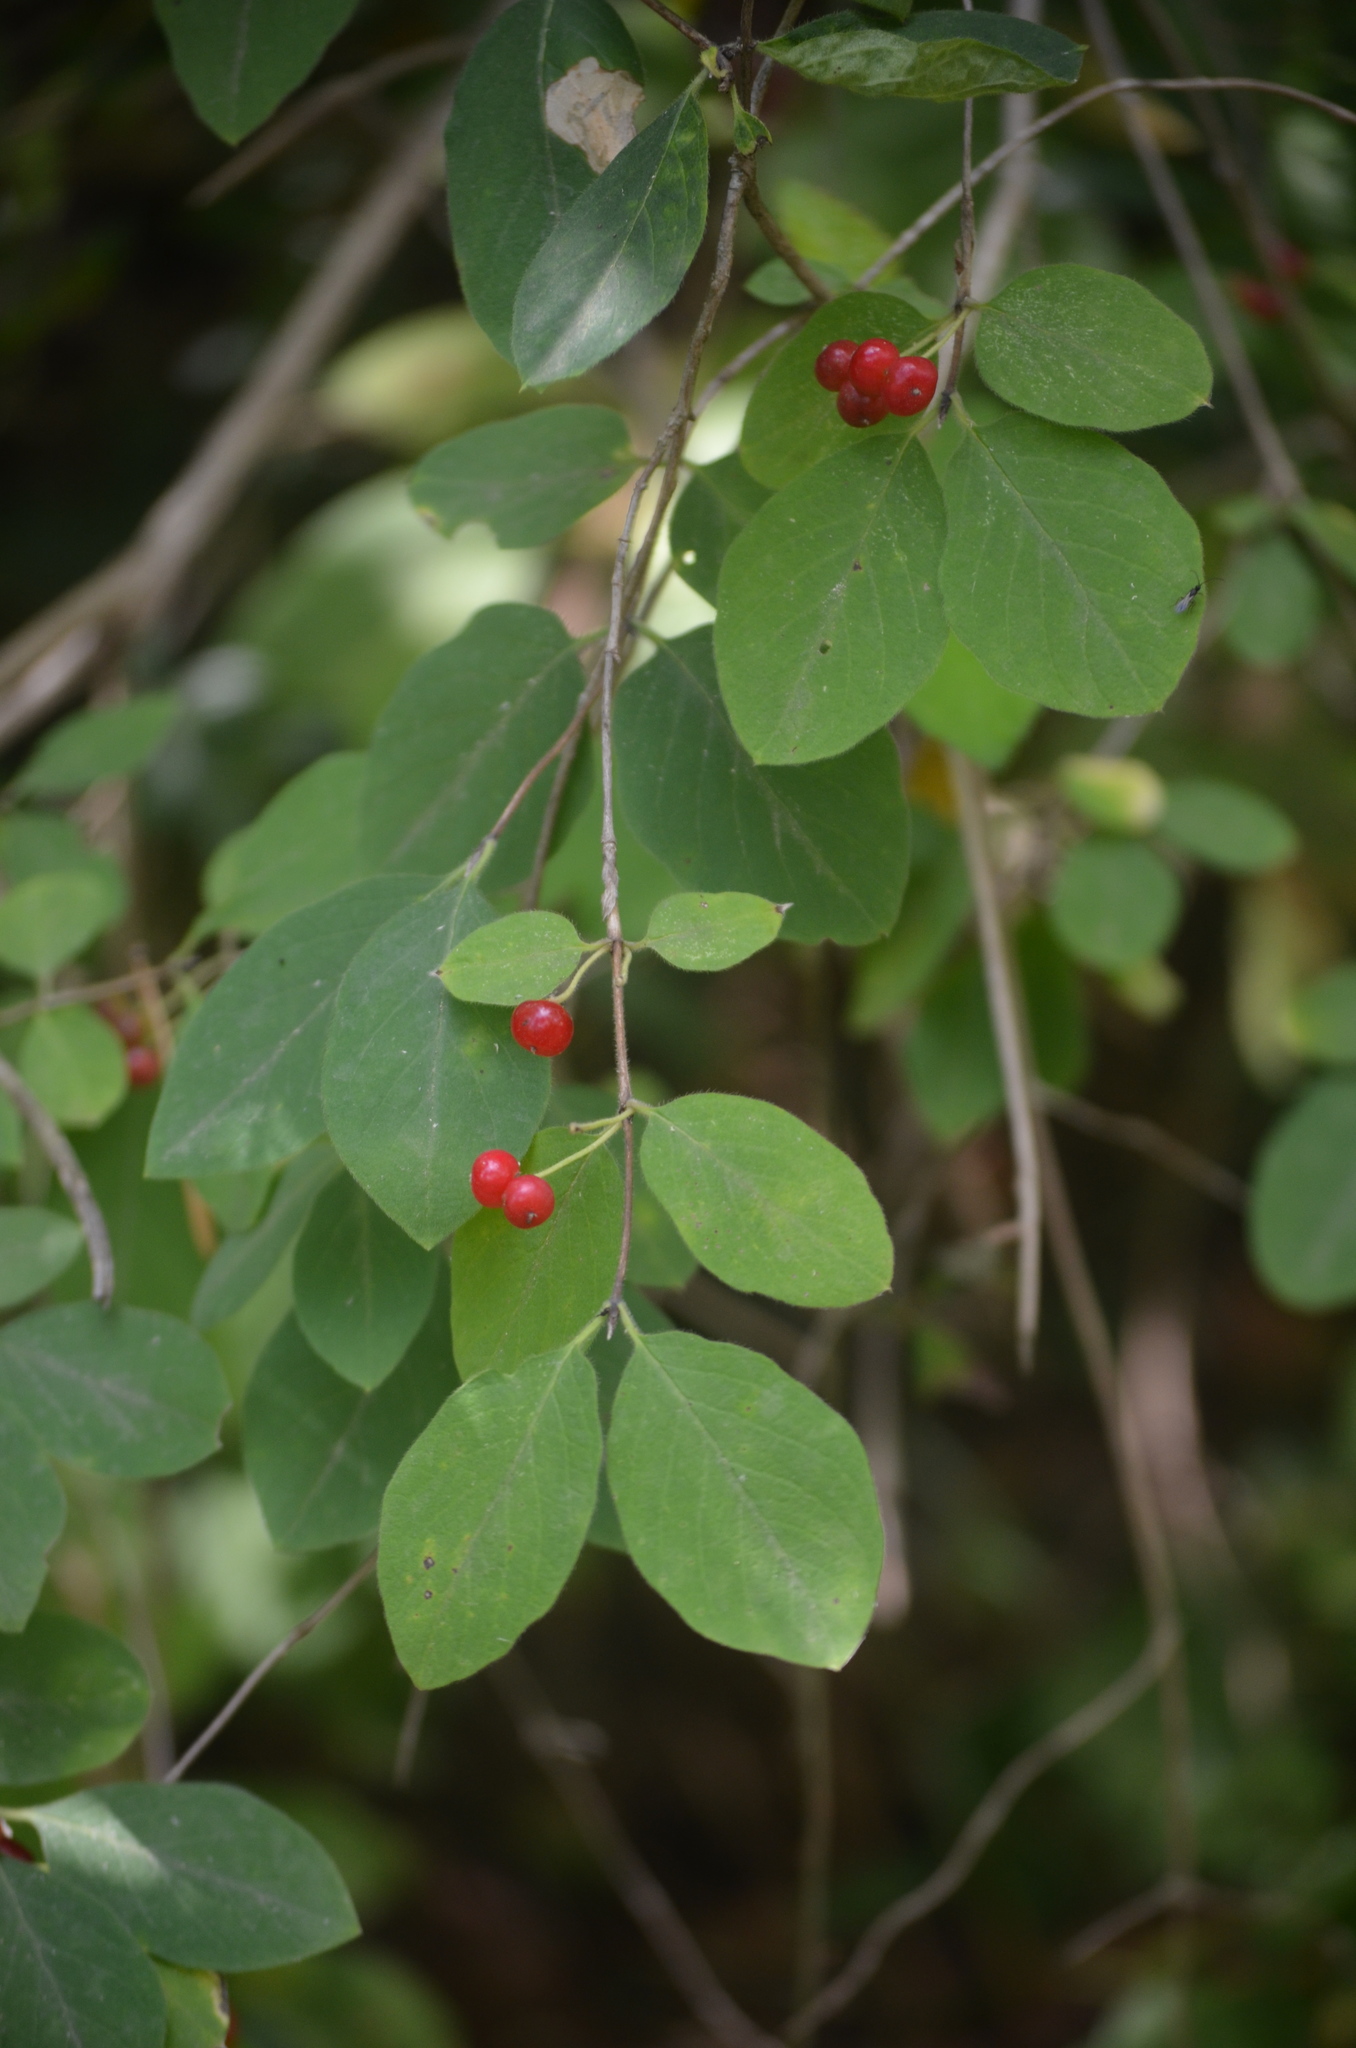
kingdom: Plantae
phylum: Tracheophyta
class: Magnoliopsida
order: Dipsacales
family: Caprifoliaceae
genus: Lonicera
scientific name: Lonicera xylosteum
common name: Fly honeysuckle
